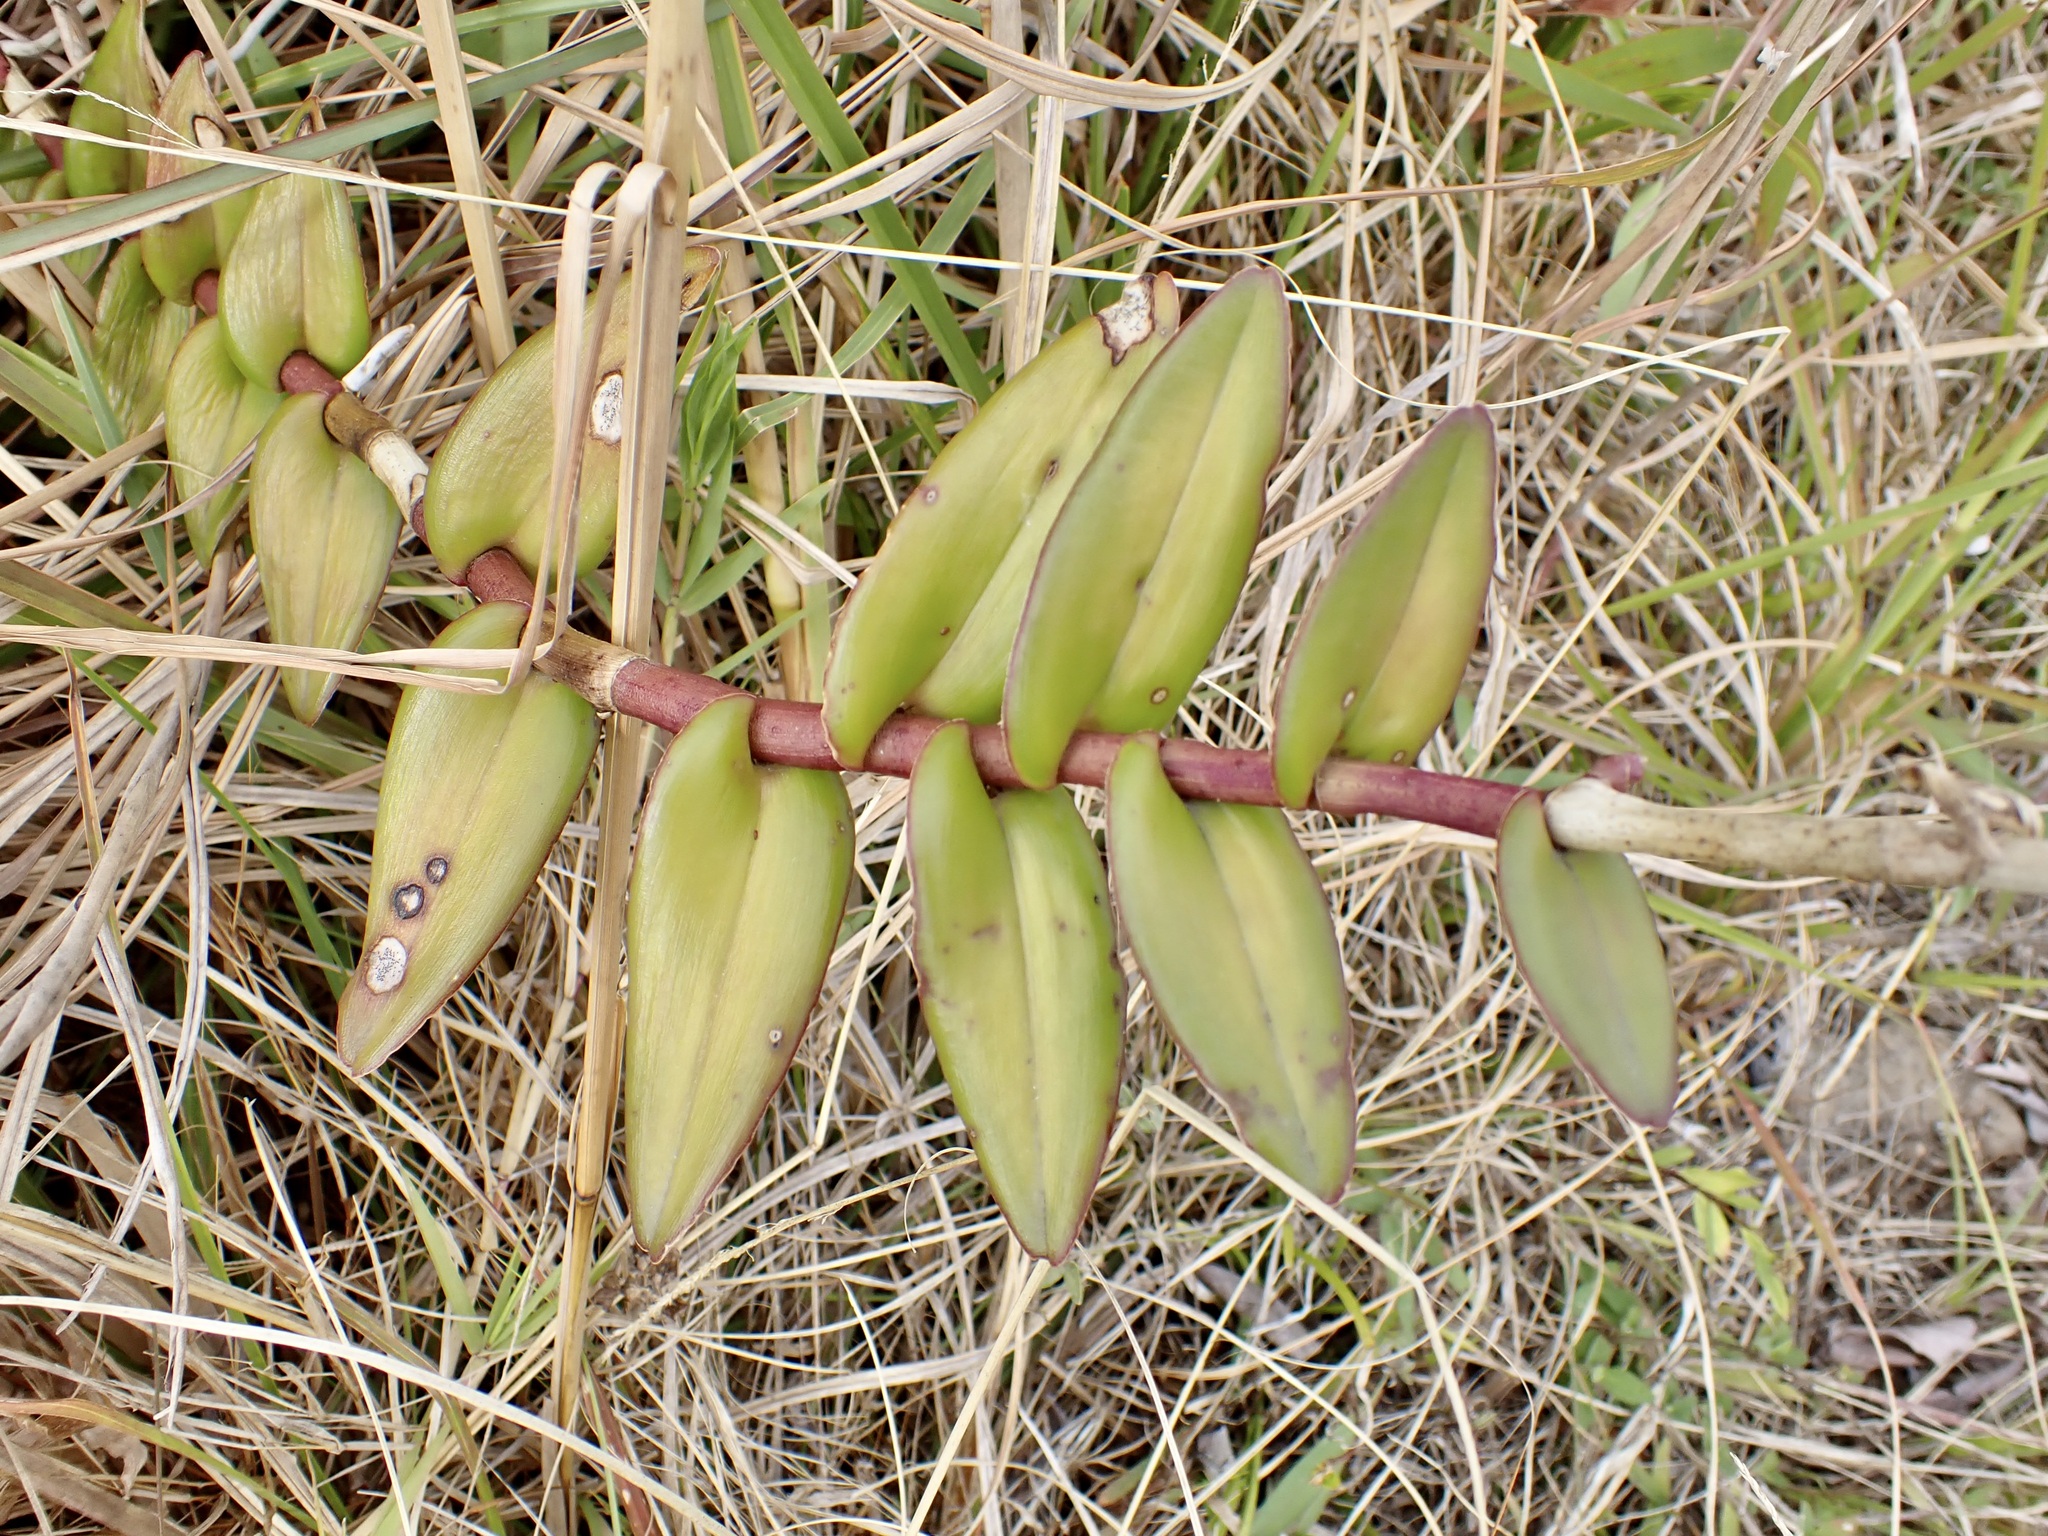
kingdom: Plantae
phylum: Tracheophyta
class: Liliopsida
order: Asparagales
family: Orchidaceae
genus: Epidendrum
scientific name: Epidendrum radicans
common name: Fire star orchid
